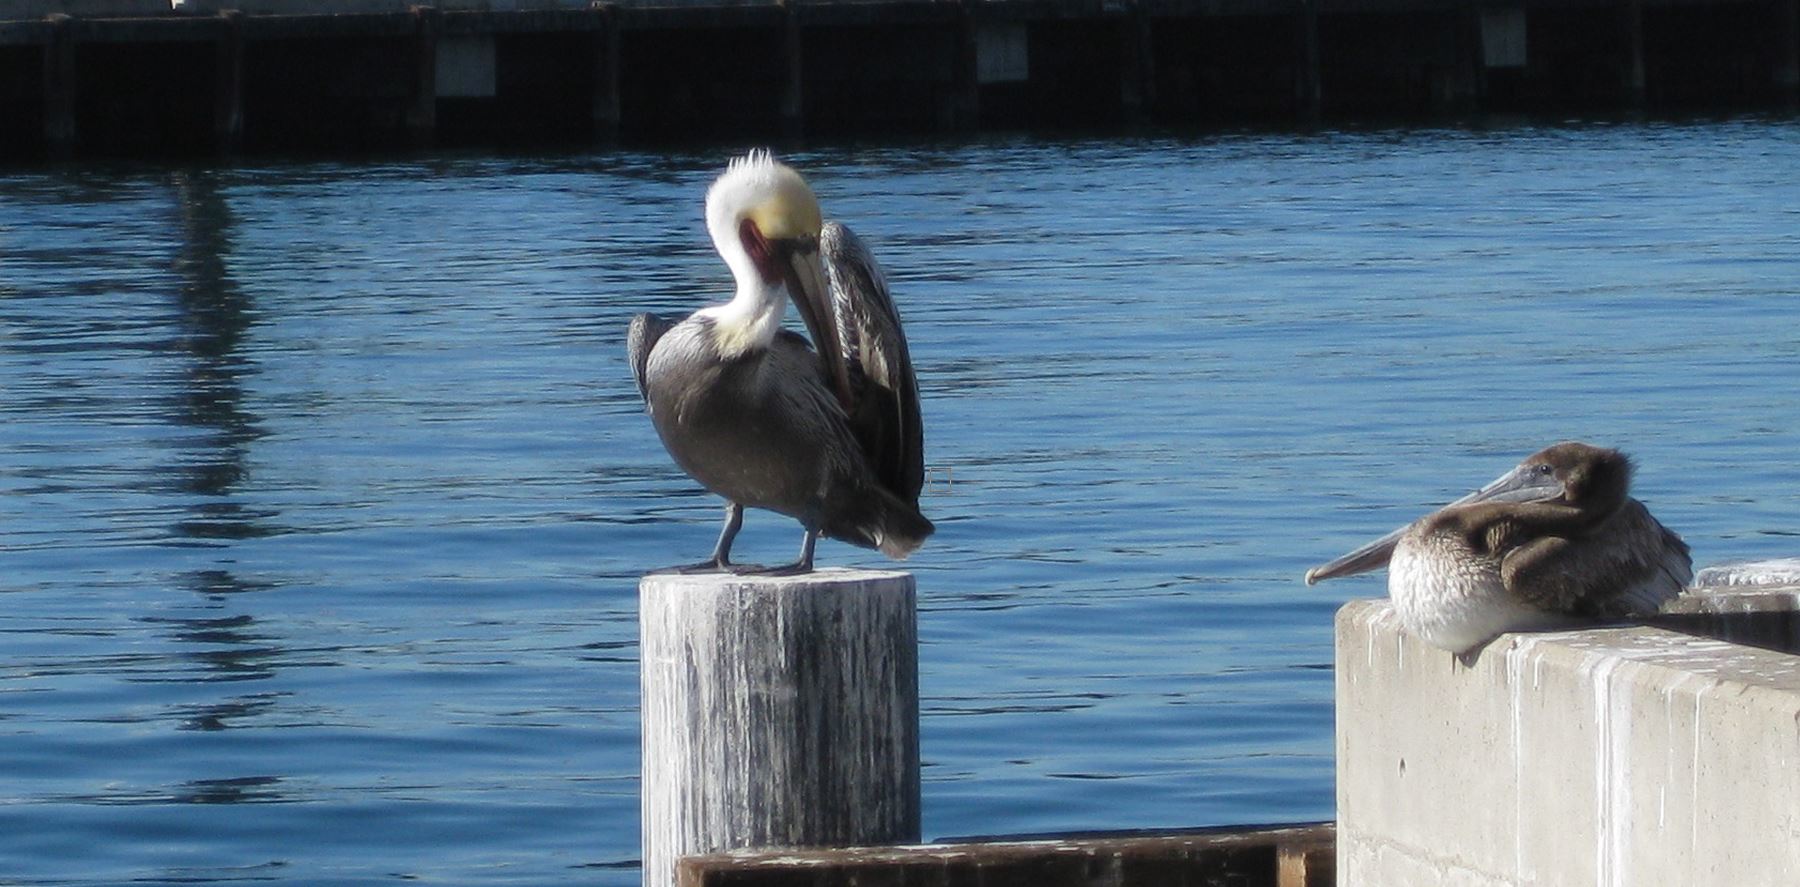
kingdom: Animalia
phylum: Chordata
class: Aves
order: Pelecaniformes
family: Pelecanidae
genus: Pelecanus
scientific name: Pelecanus occidentalis
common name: Brown pelican
